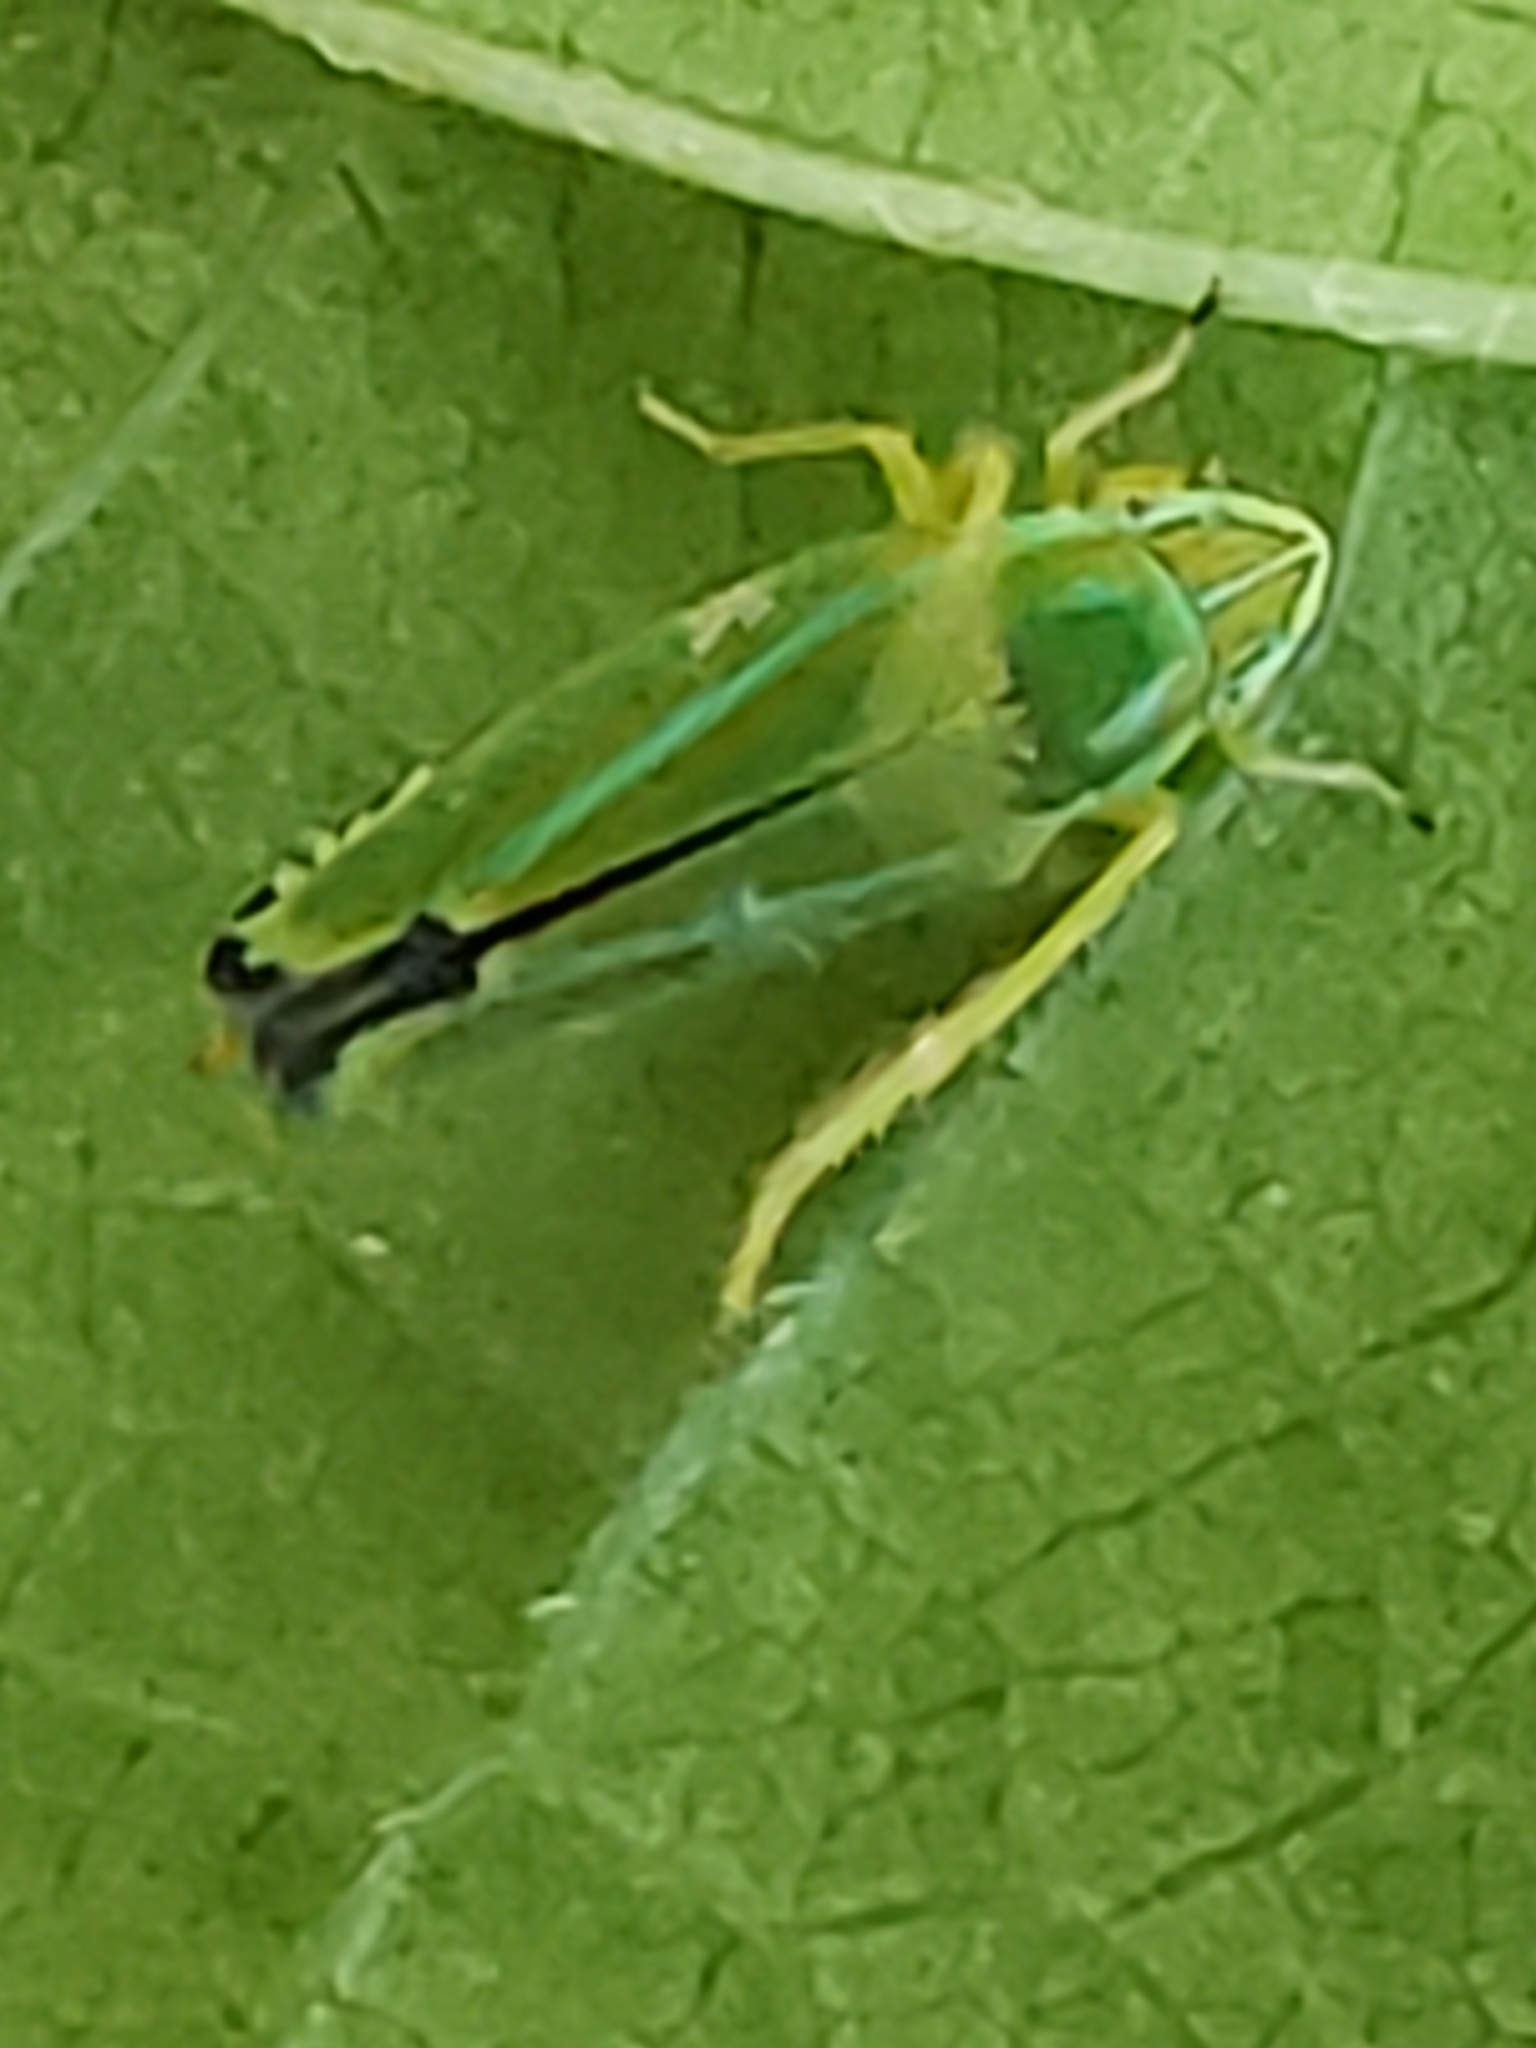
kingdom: Animalia
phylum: Arthropoda
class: Insecta
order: Hemiptera
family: Cicadellidae
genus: Graphocephala
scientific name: Graphocephala versuta
